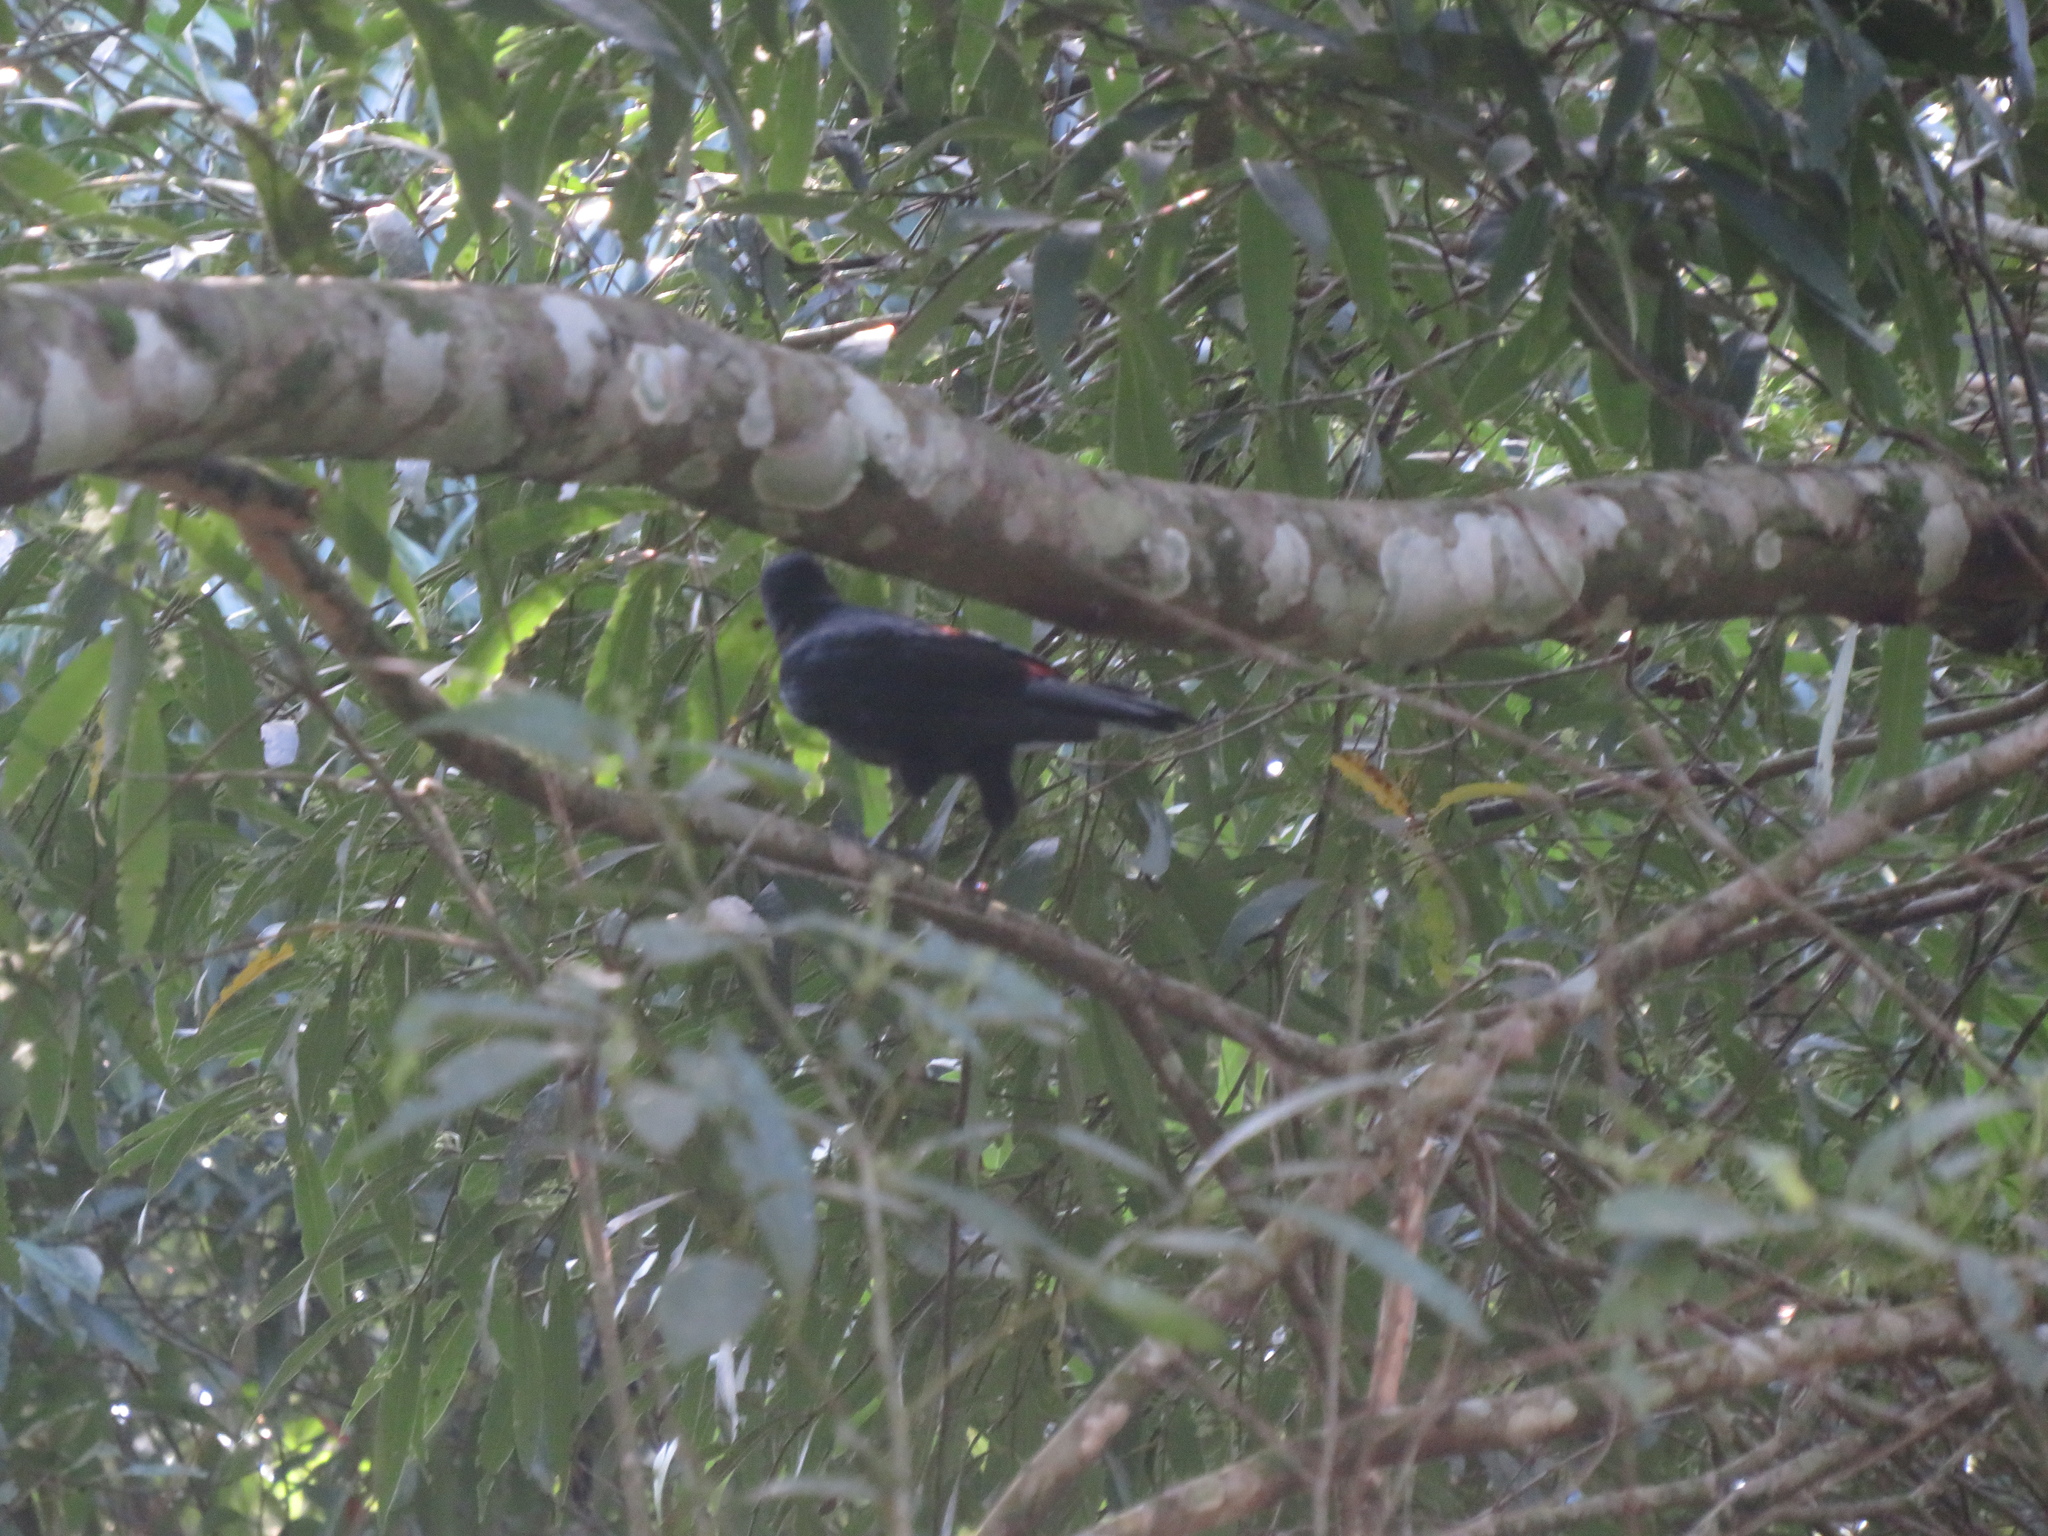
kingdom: Animalia
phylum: Chordata
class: Aves
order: Passeriformes
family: Icteridae
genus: Cacicus
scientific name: Cacicus haemorrhous
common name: Red-rumped cacique
